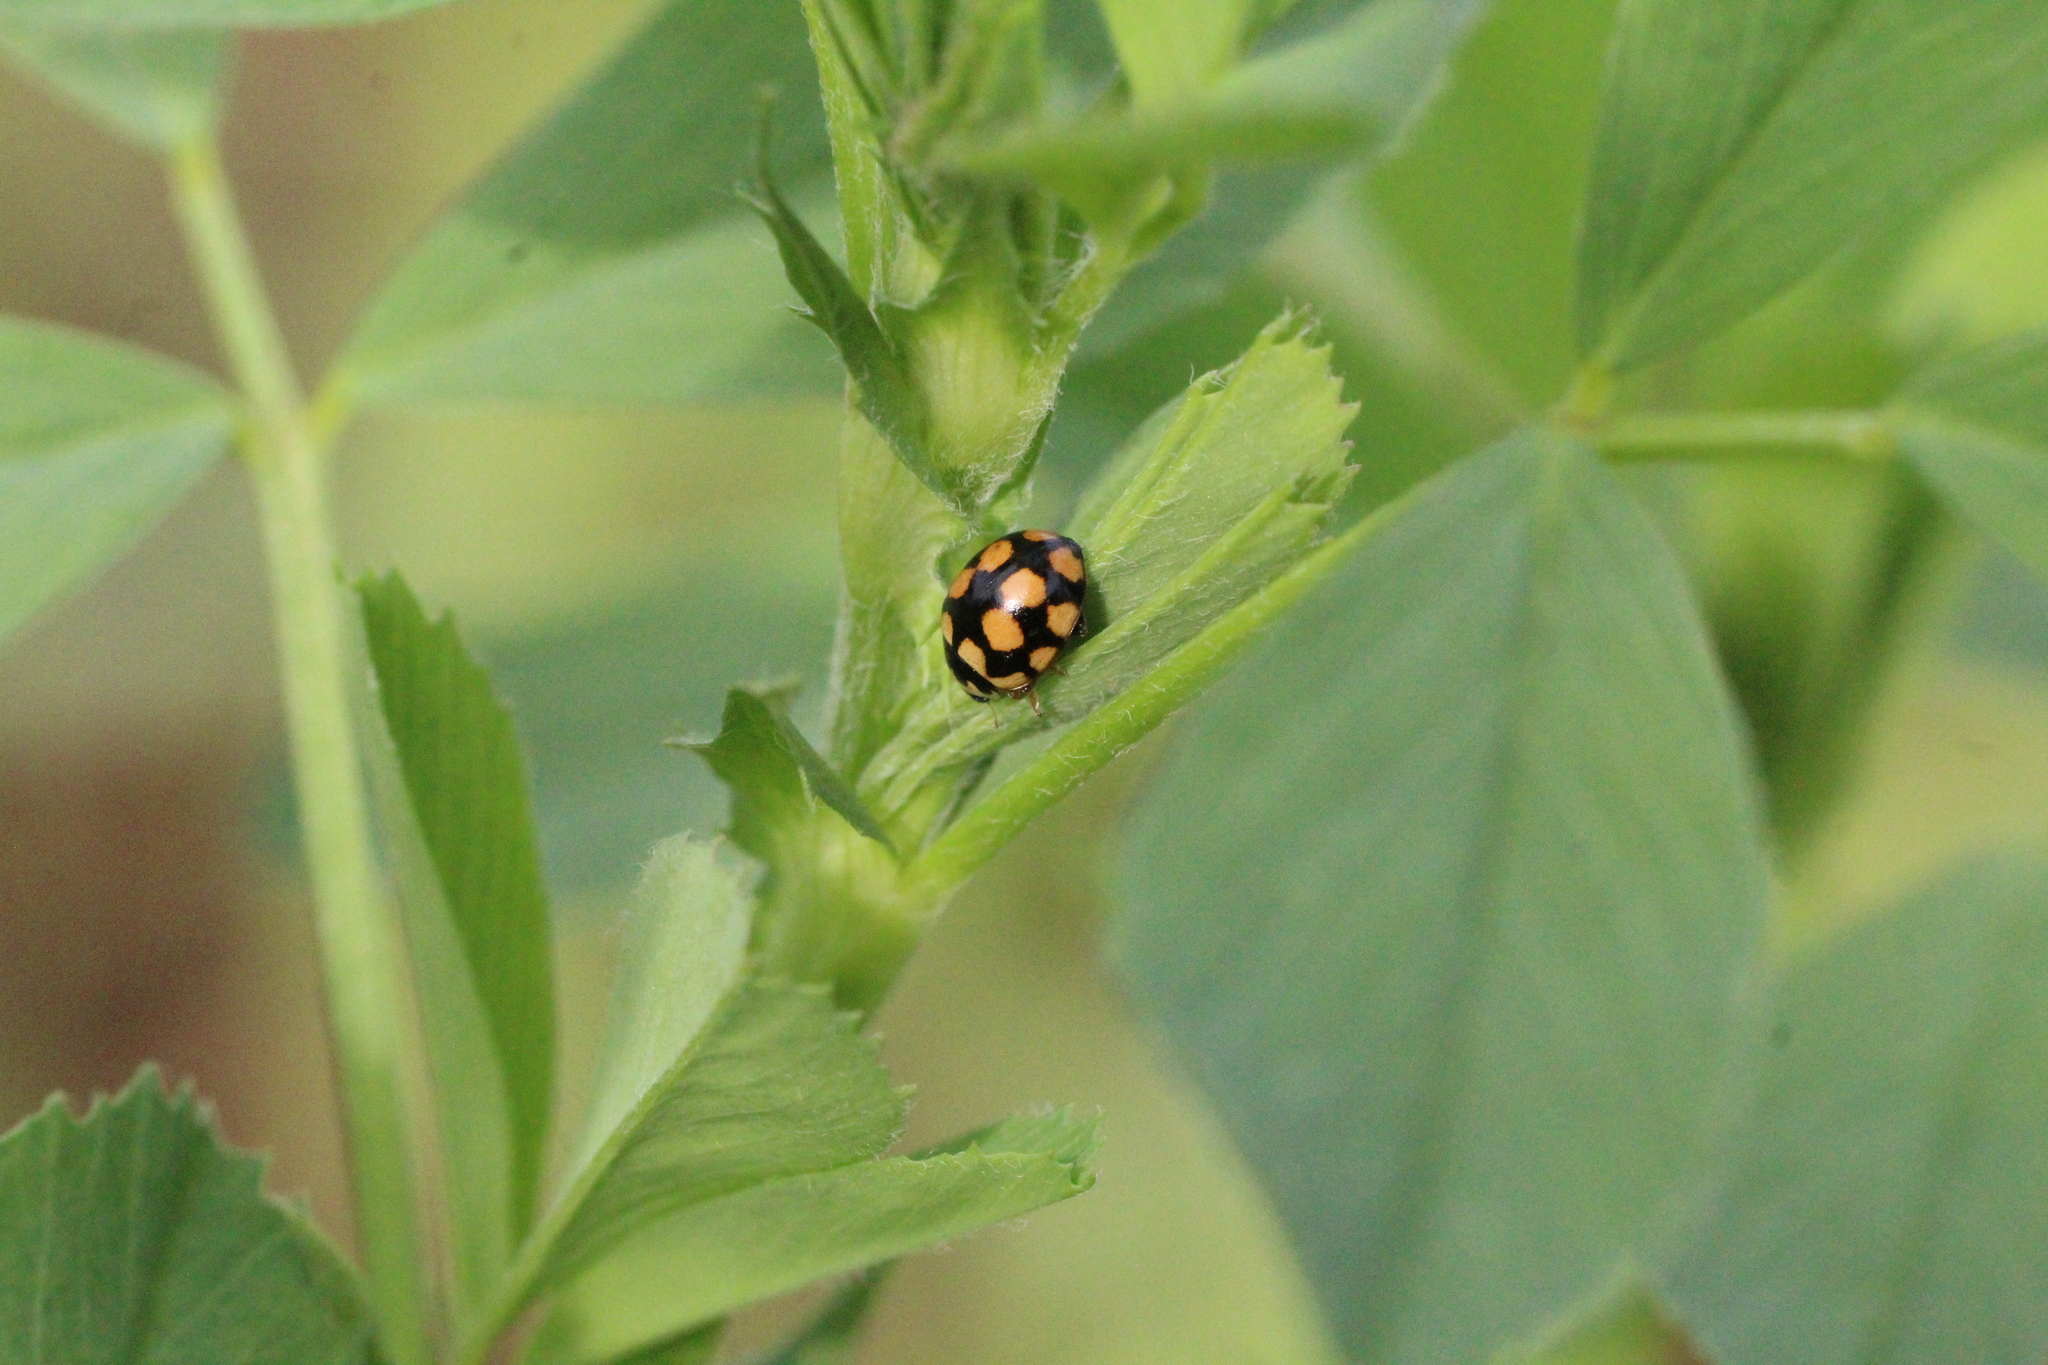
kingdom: Animalia
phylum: Arthropoda
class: Insecta
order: Coleoptera
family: Coccinellidae
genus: Coccinula
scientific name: Coccinula quatuordecimpustulata
